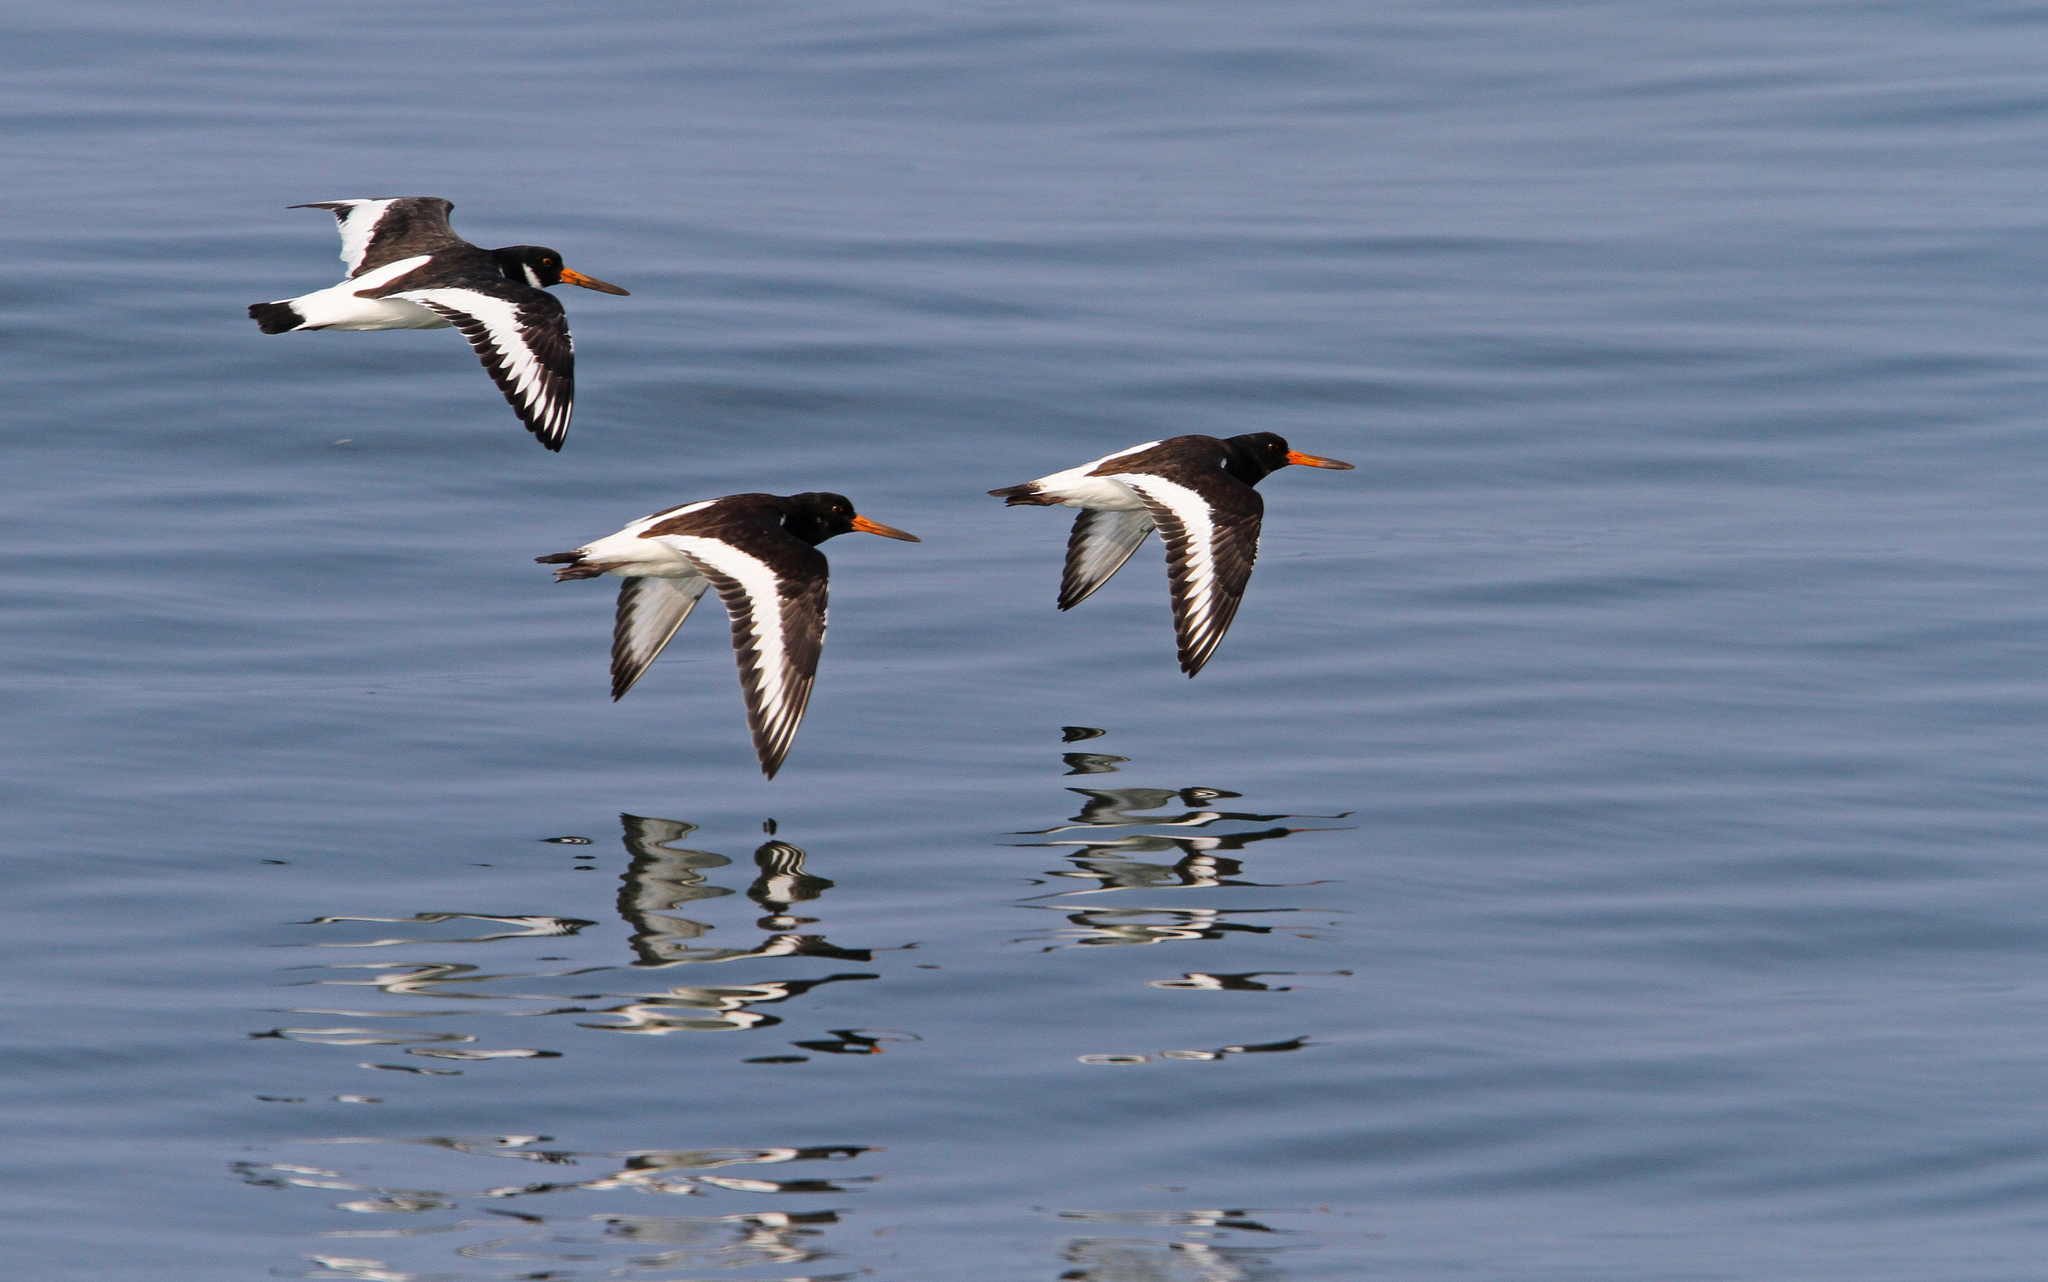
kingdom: Animalia
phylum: Chordata
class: Aves
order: Charadriiformes
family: Haematopodidae
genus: Haematopus
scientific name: Haematopus ostralegus
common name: Eurasian oystercatcher
